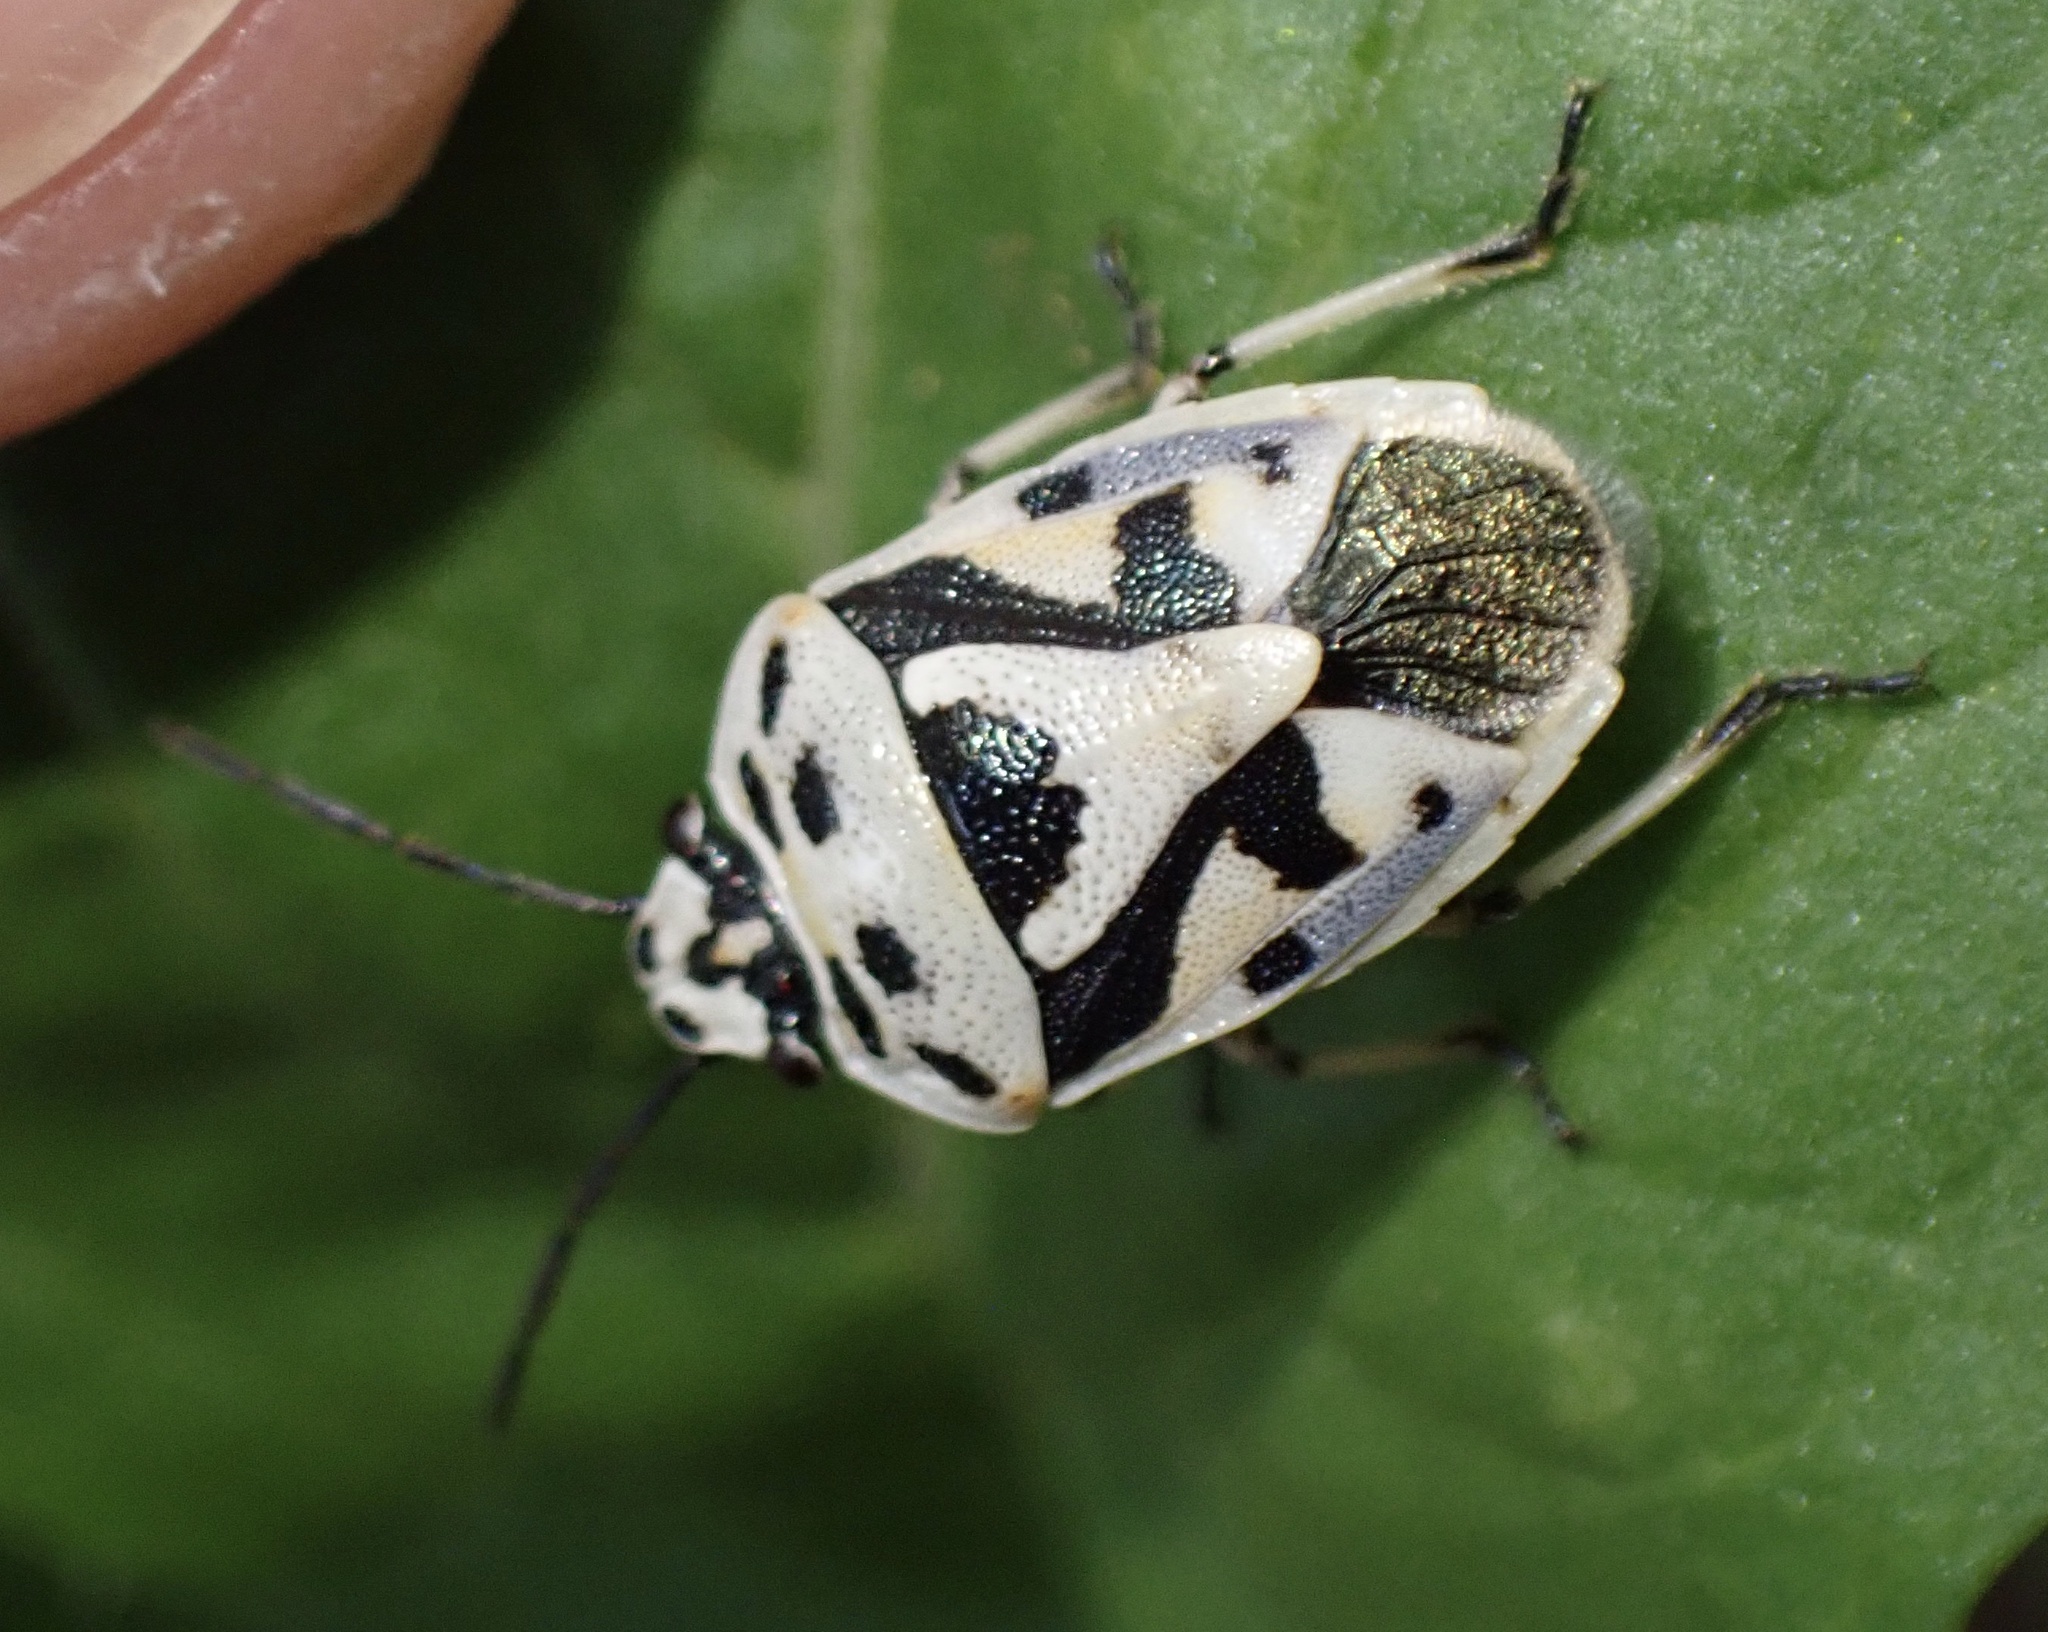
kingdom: Animalia
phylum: Arthropoda
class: Insecta
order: Hemiptera
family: Pentatomidae
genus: Eurydema
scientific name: Eurydema ornata
